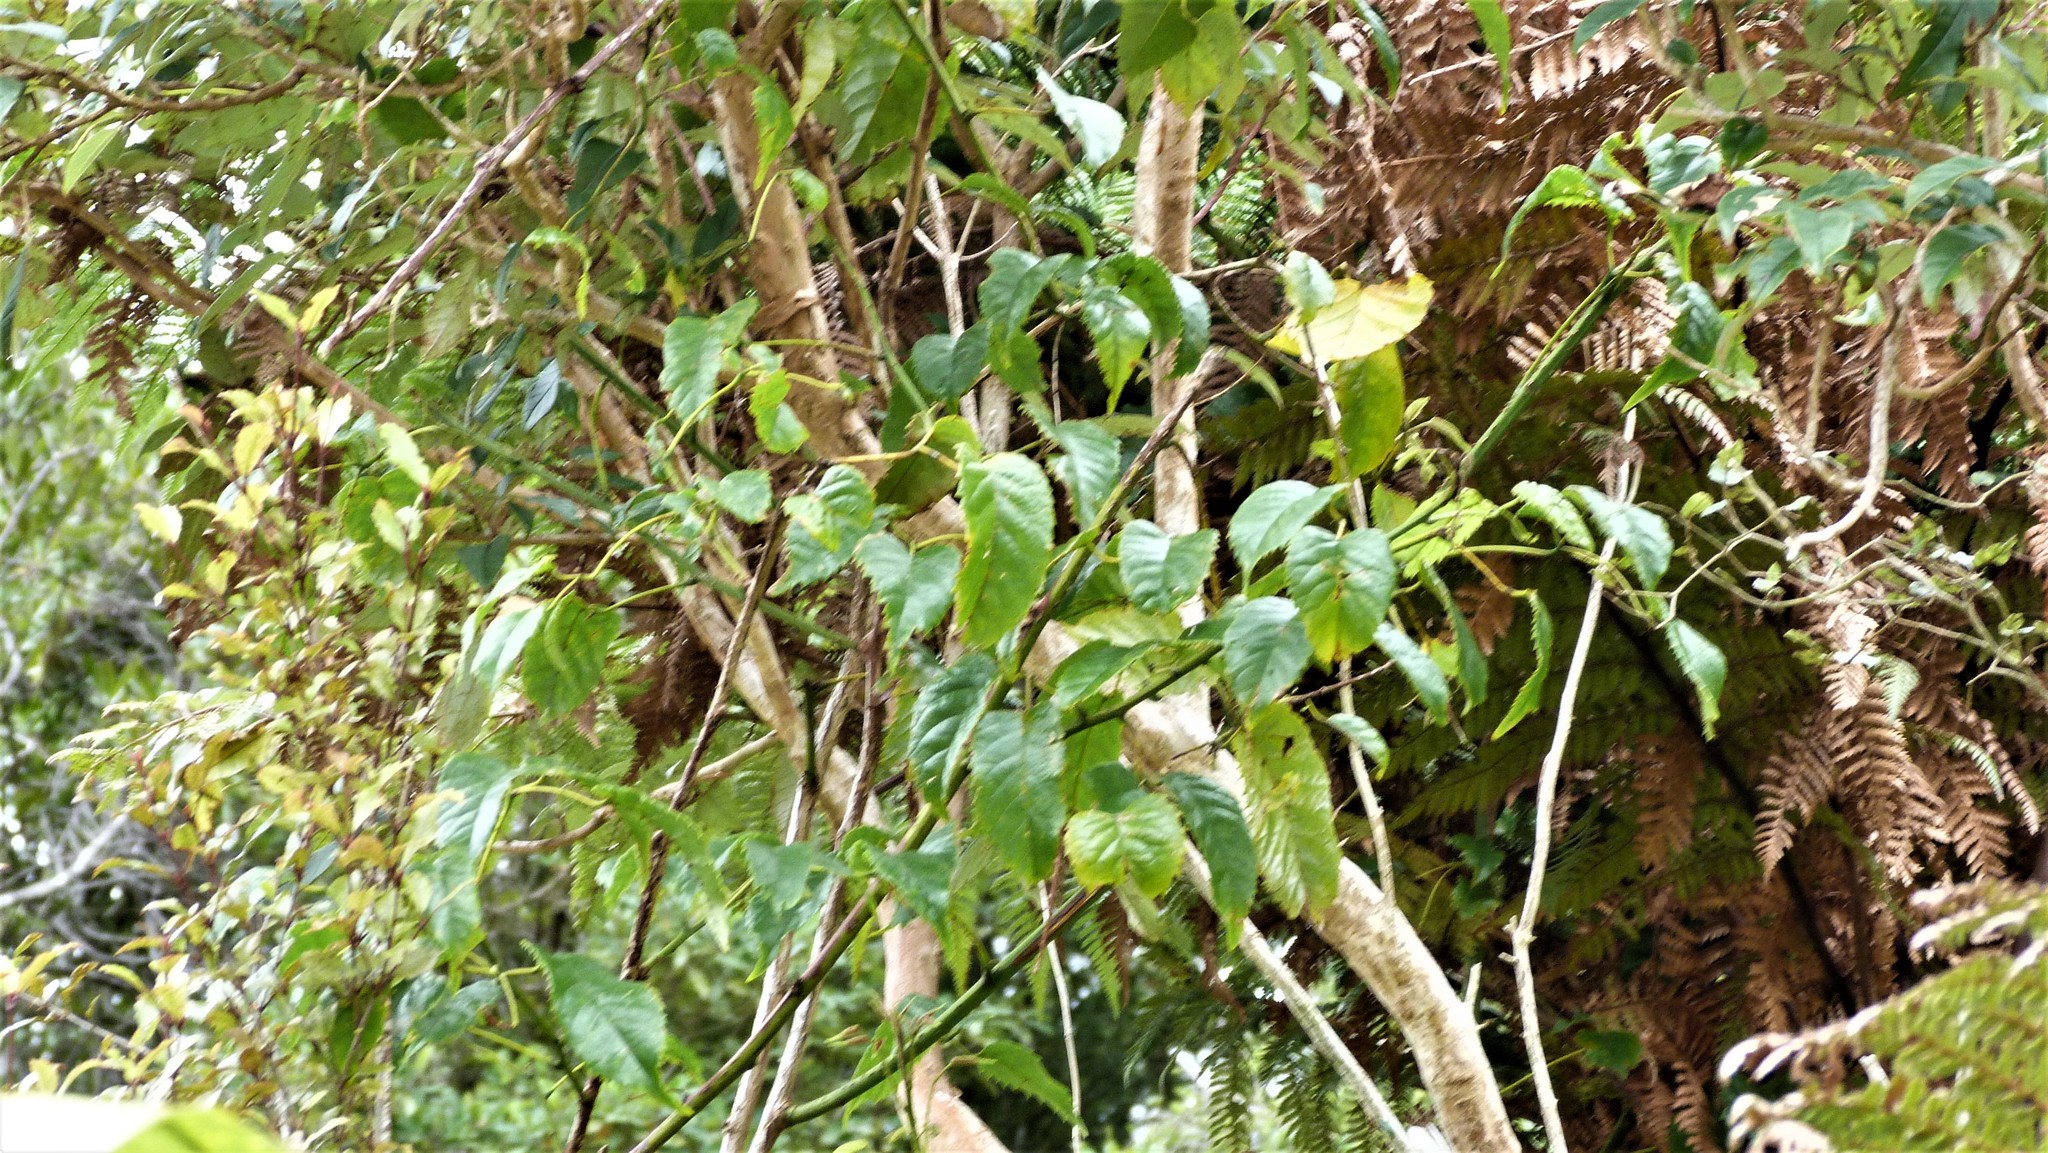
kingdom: Plantae
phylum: Tracheophyta
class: Magnoliopsida
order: Rosales
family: Rosaceae
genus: Rubus
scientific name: Rubus cissoides
